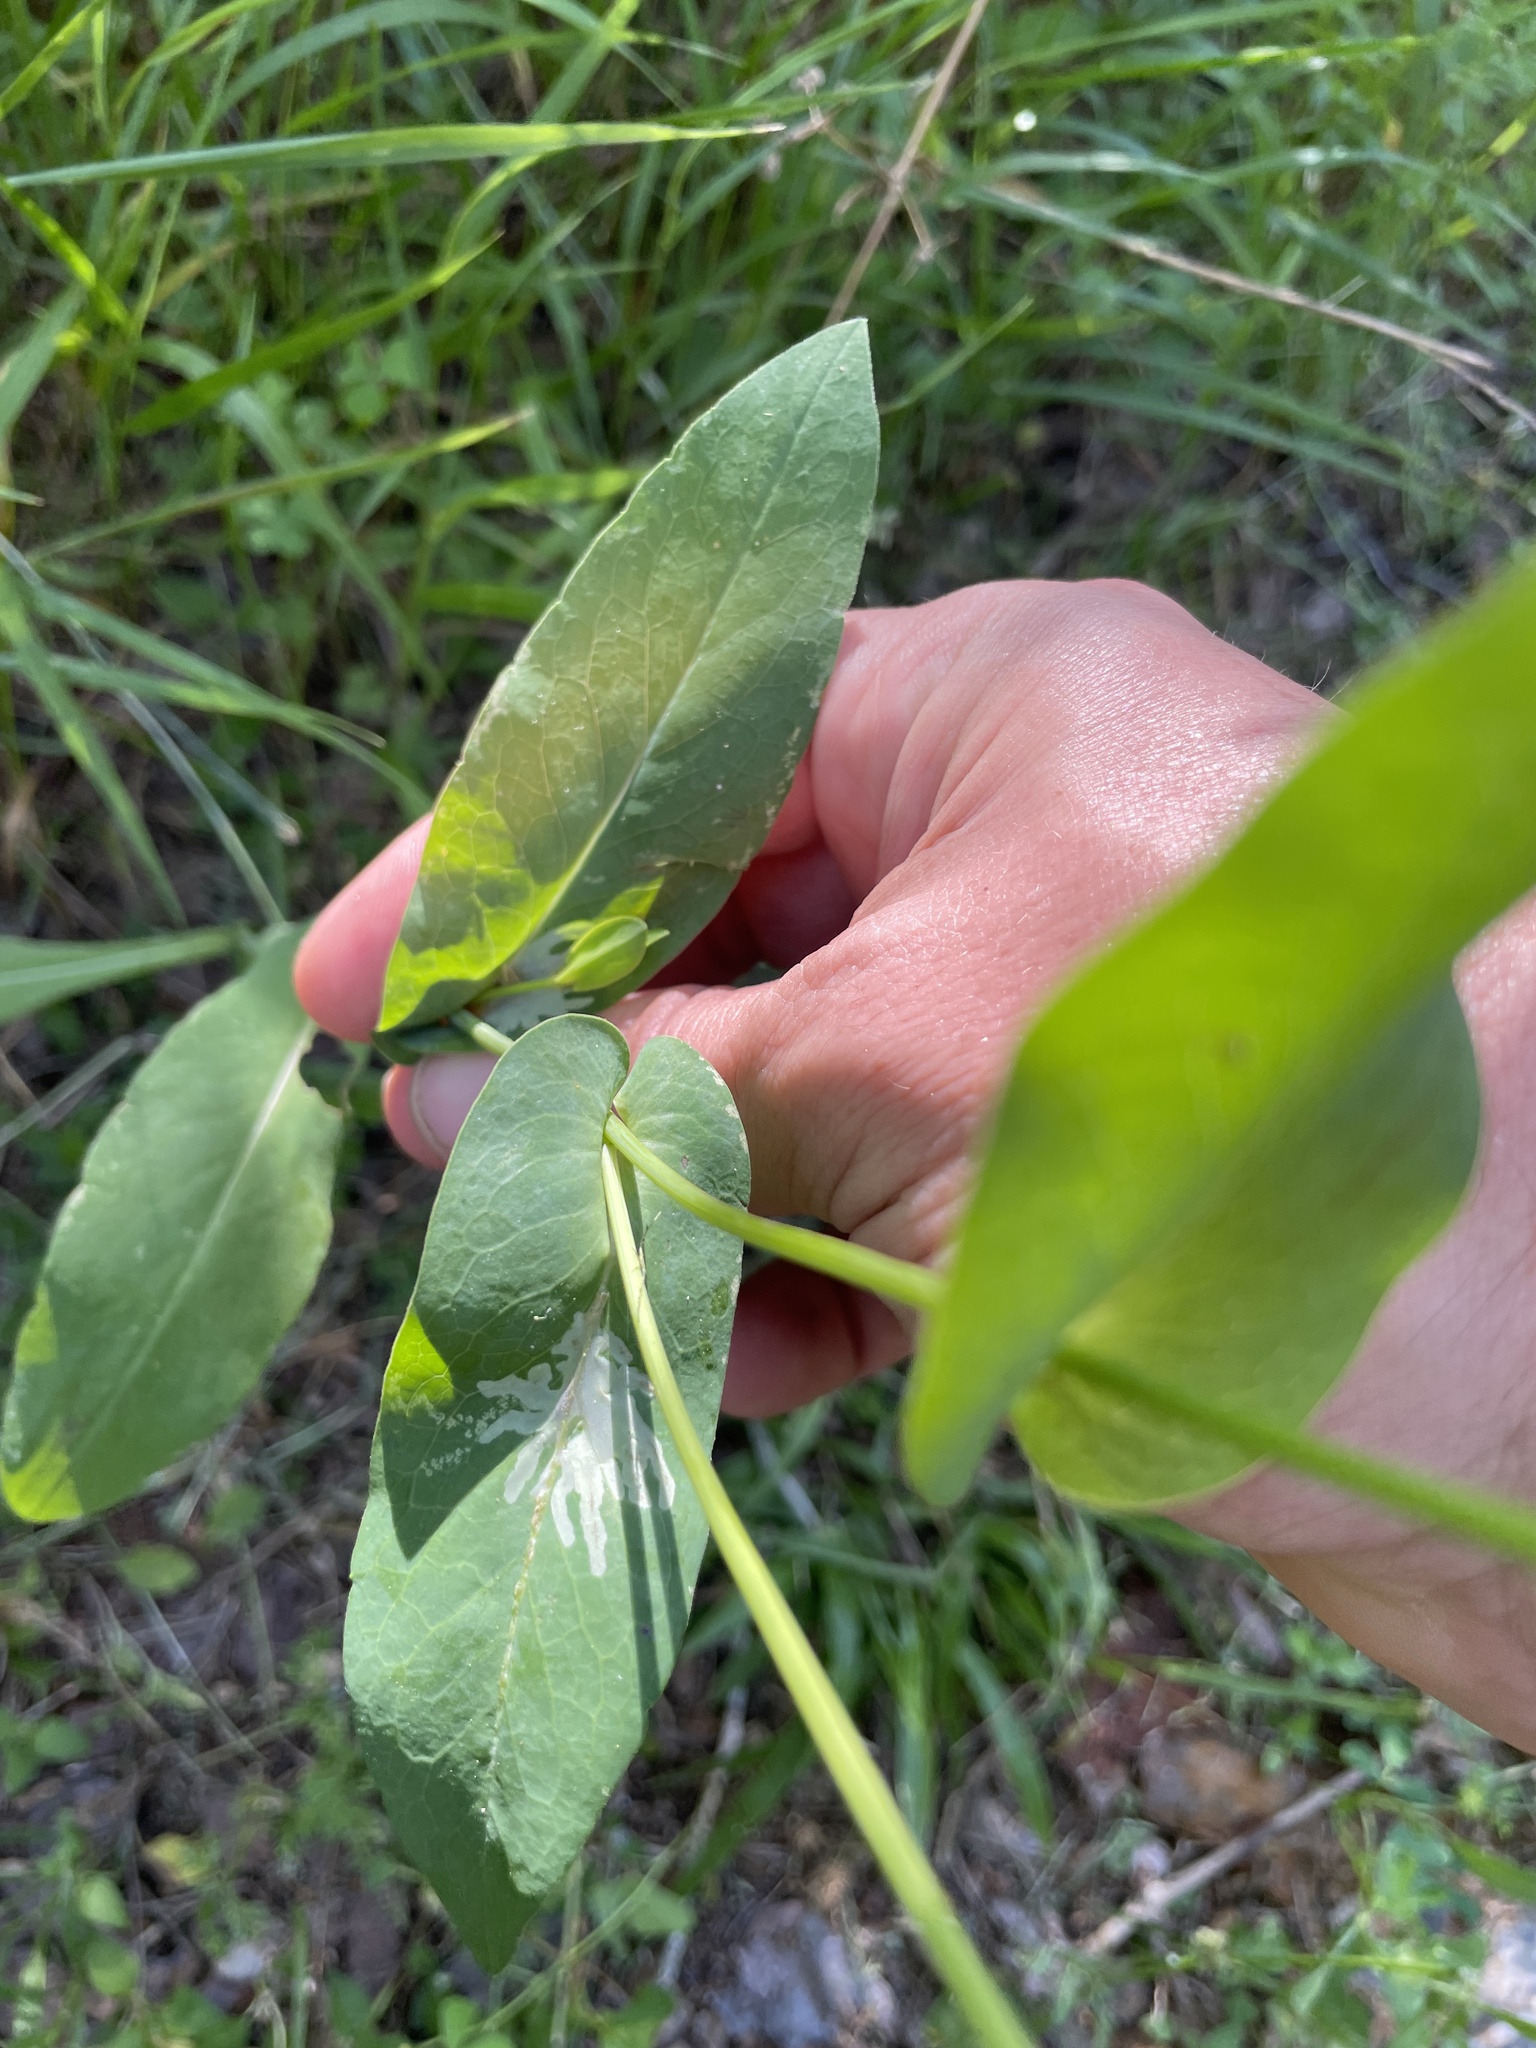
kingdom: Plantae
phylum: Tracheophyta
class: Magnoliopsida
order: Asterales
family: Asteraceae
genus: Rudbeckia
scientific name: Rudbeckia amplexicaulis
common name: Clasping-leaf coneflower
